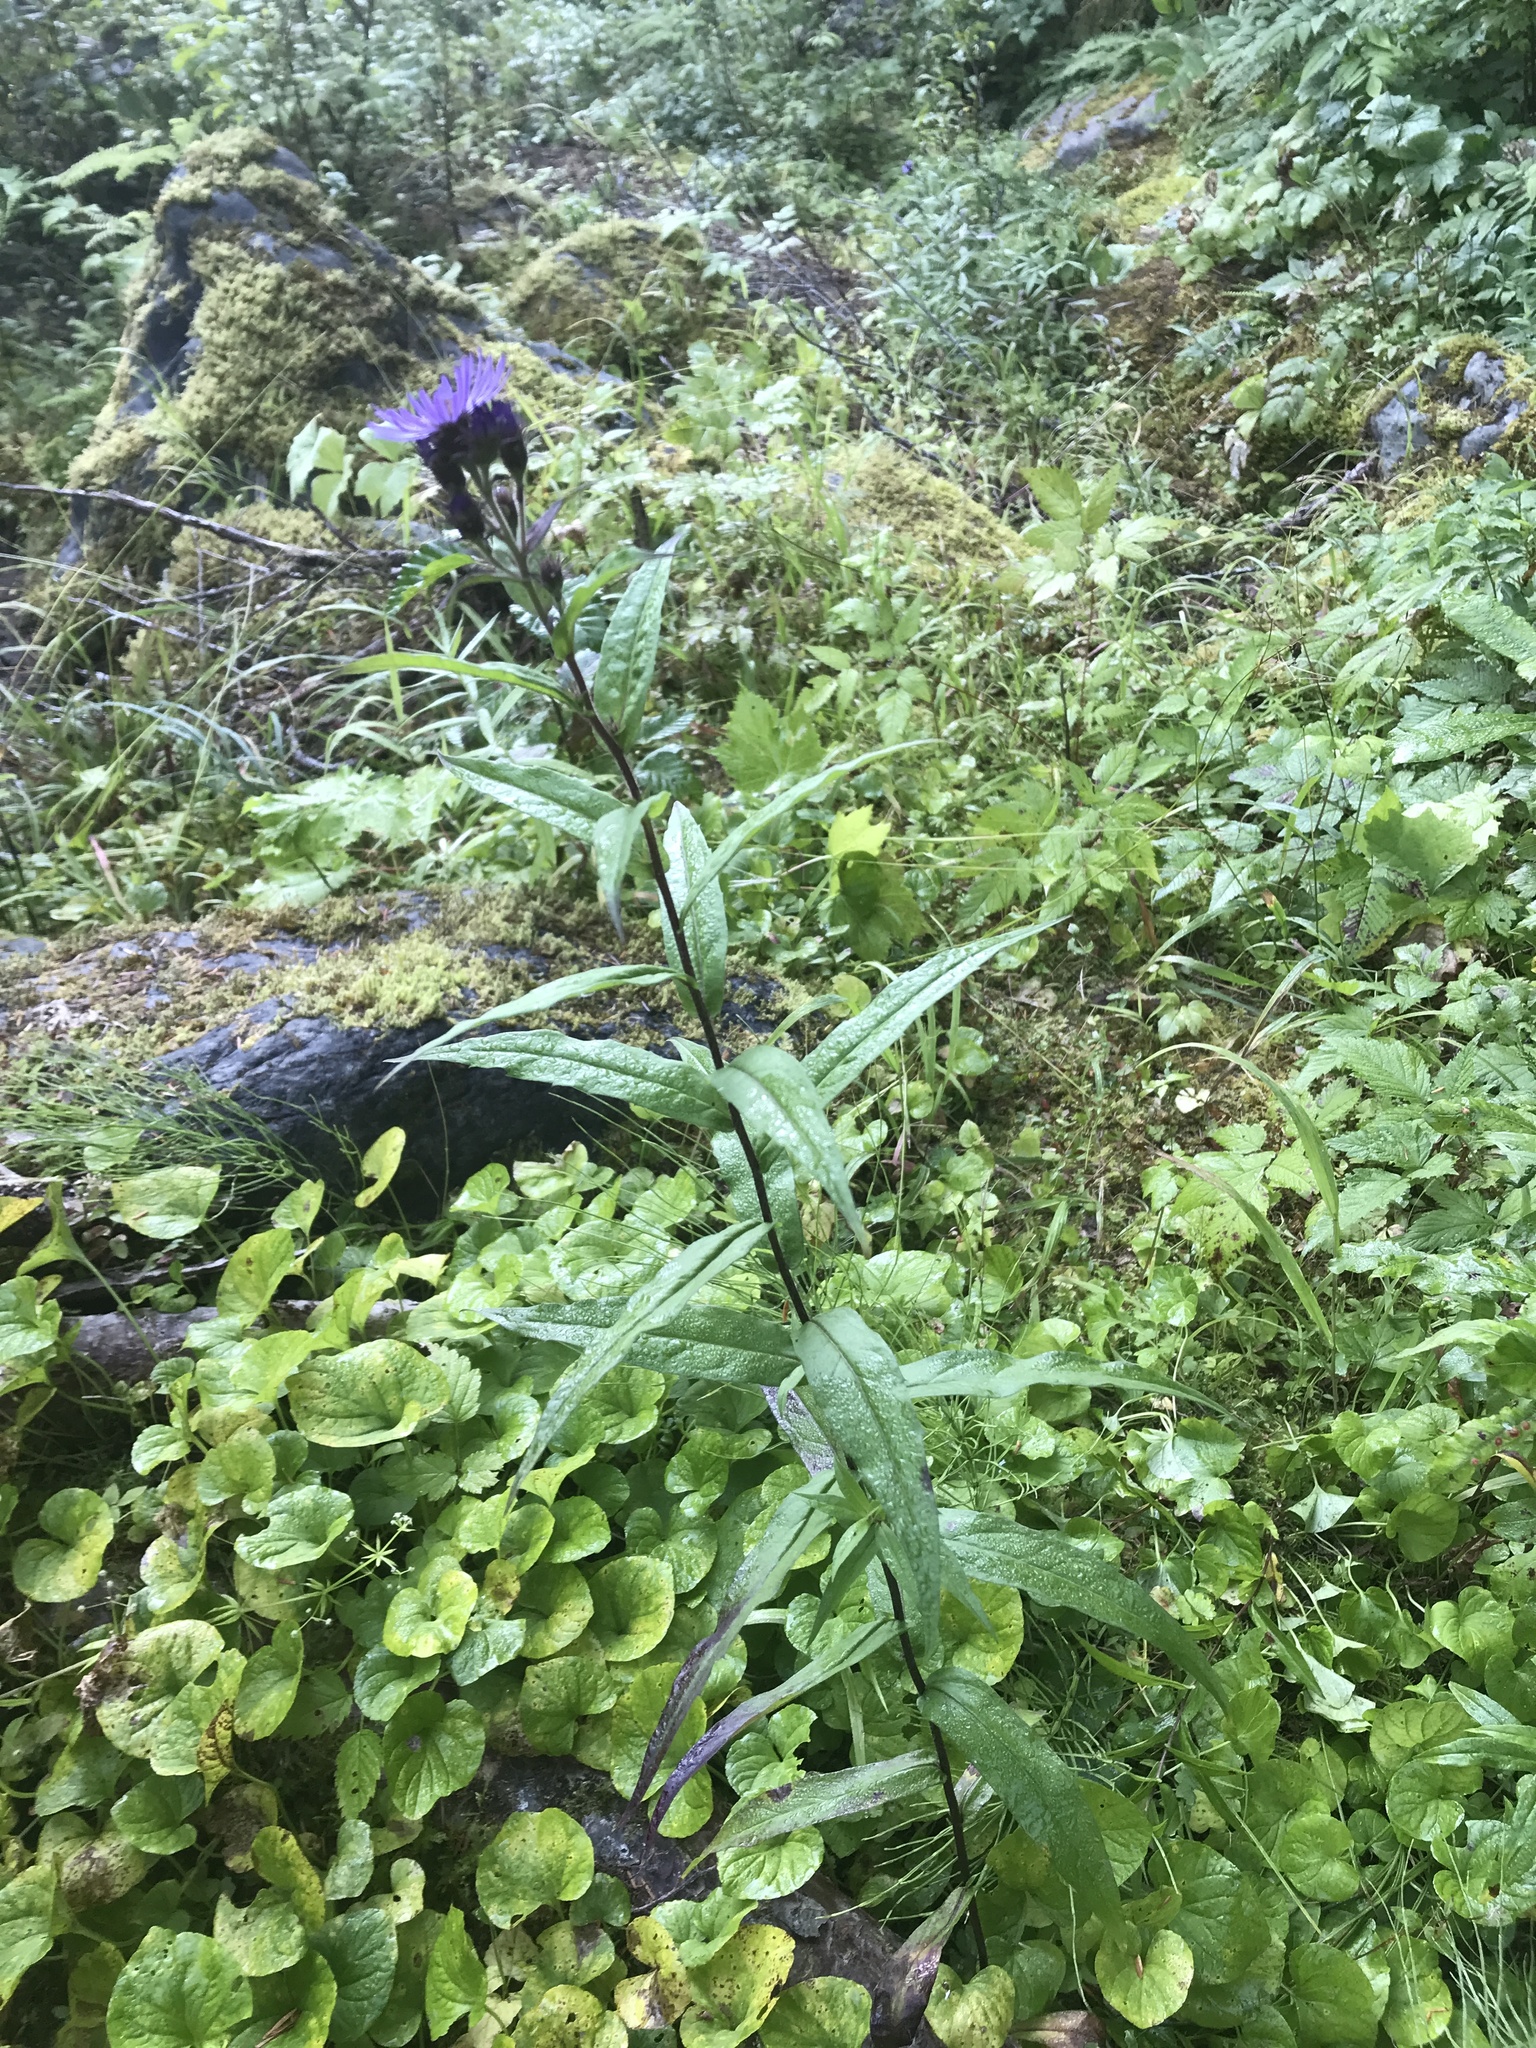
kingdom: Plantae
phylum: Tracheophyta
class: Magnoliopsida
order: Asterales
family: Asteraceae
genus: Canadanthus
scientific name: Canadanthus modestus
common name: Great northern aster
